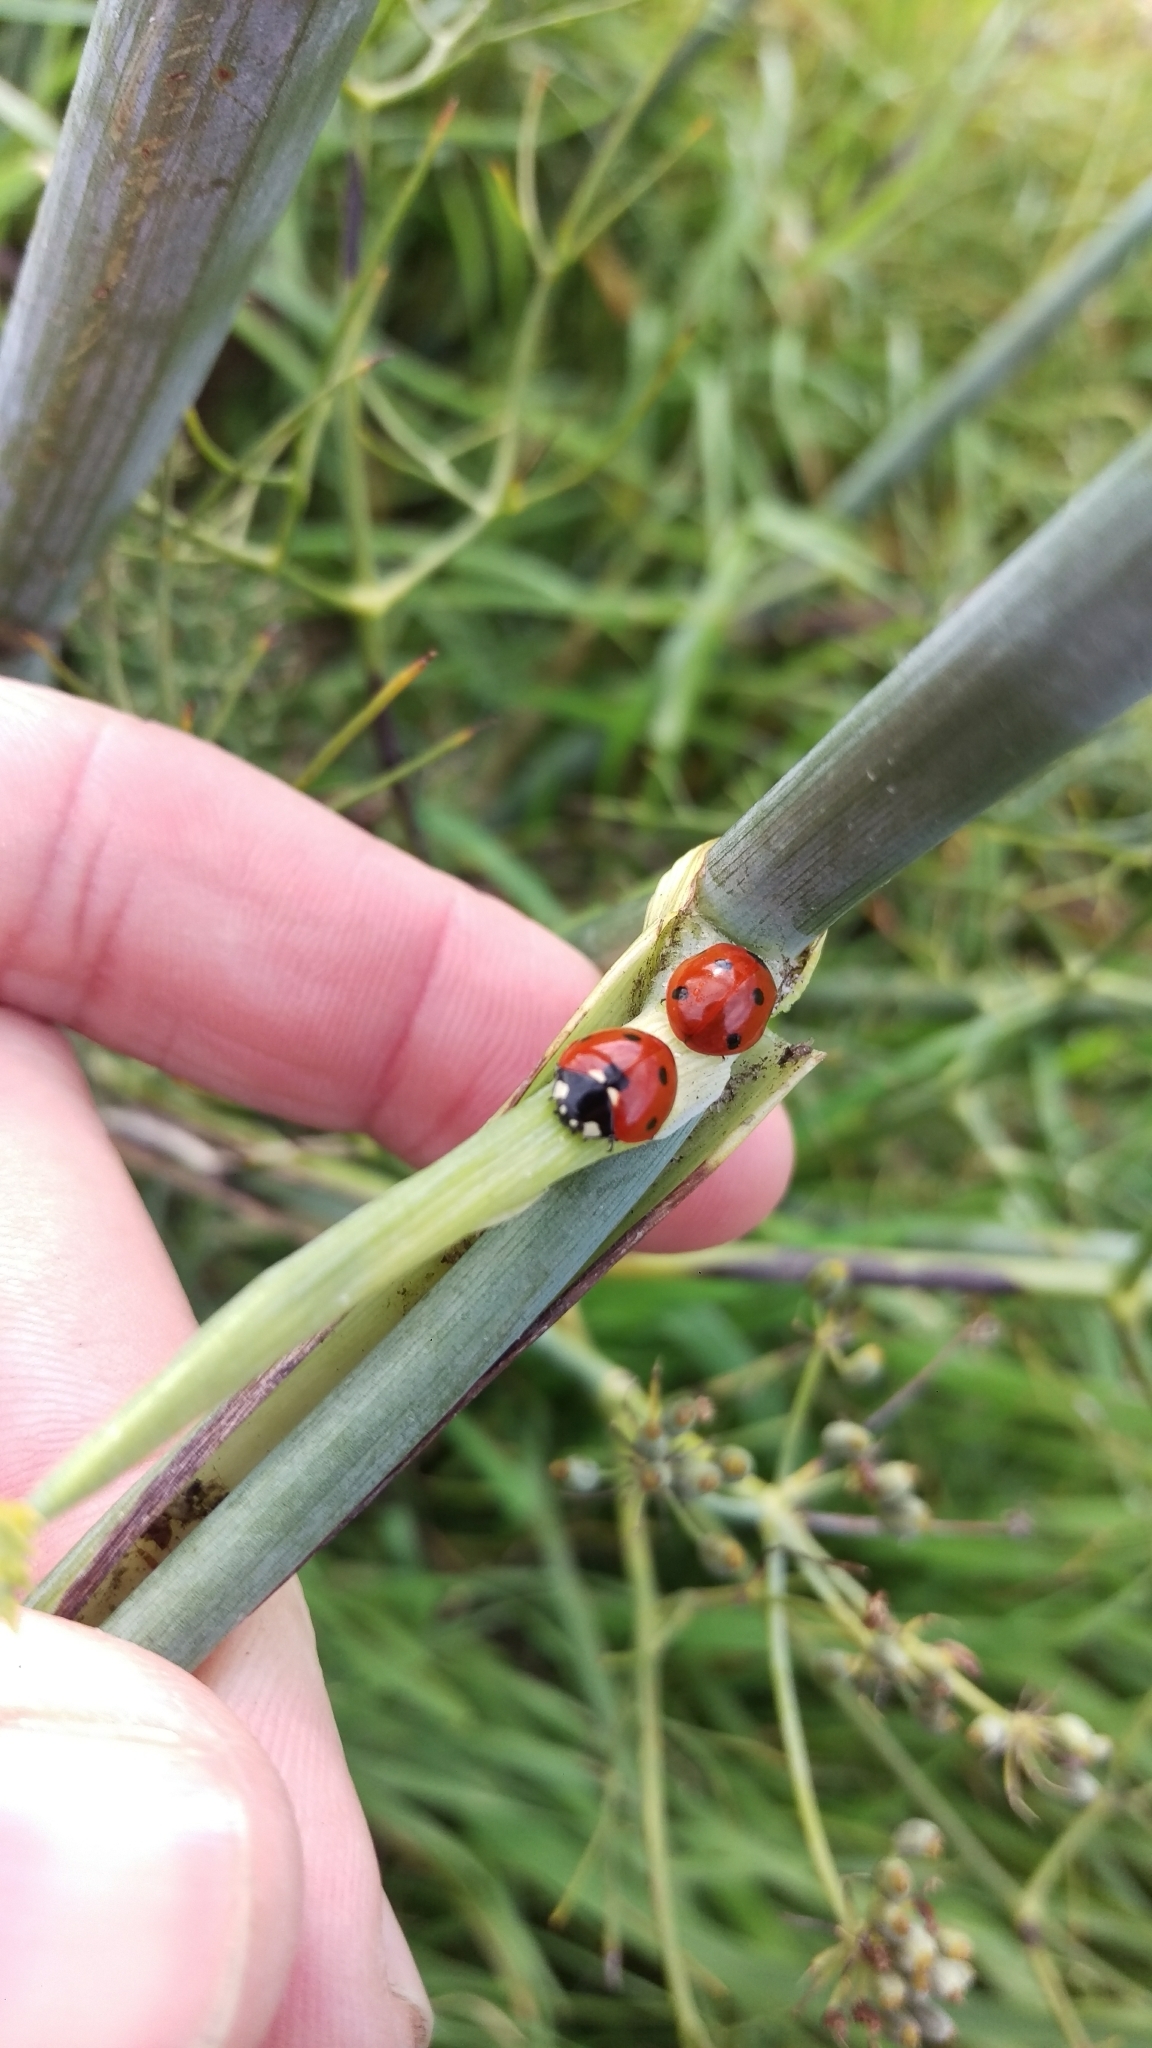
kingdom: Animalia
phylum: Arthropoda
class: Insecta
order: Coleoptera
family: Coccinellidae
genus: Coccinella
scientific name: Coccinella septempunctata
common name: Sevenspotted lady beetle
